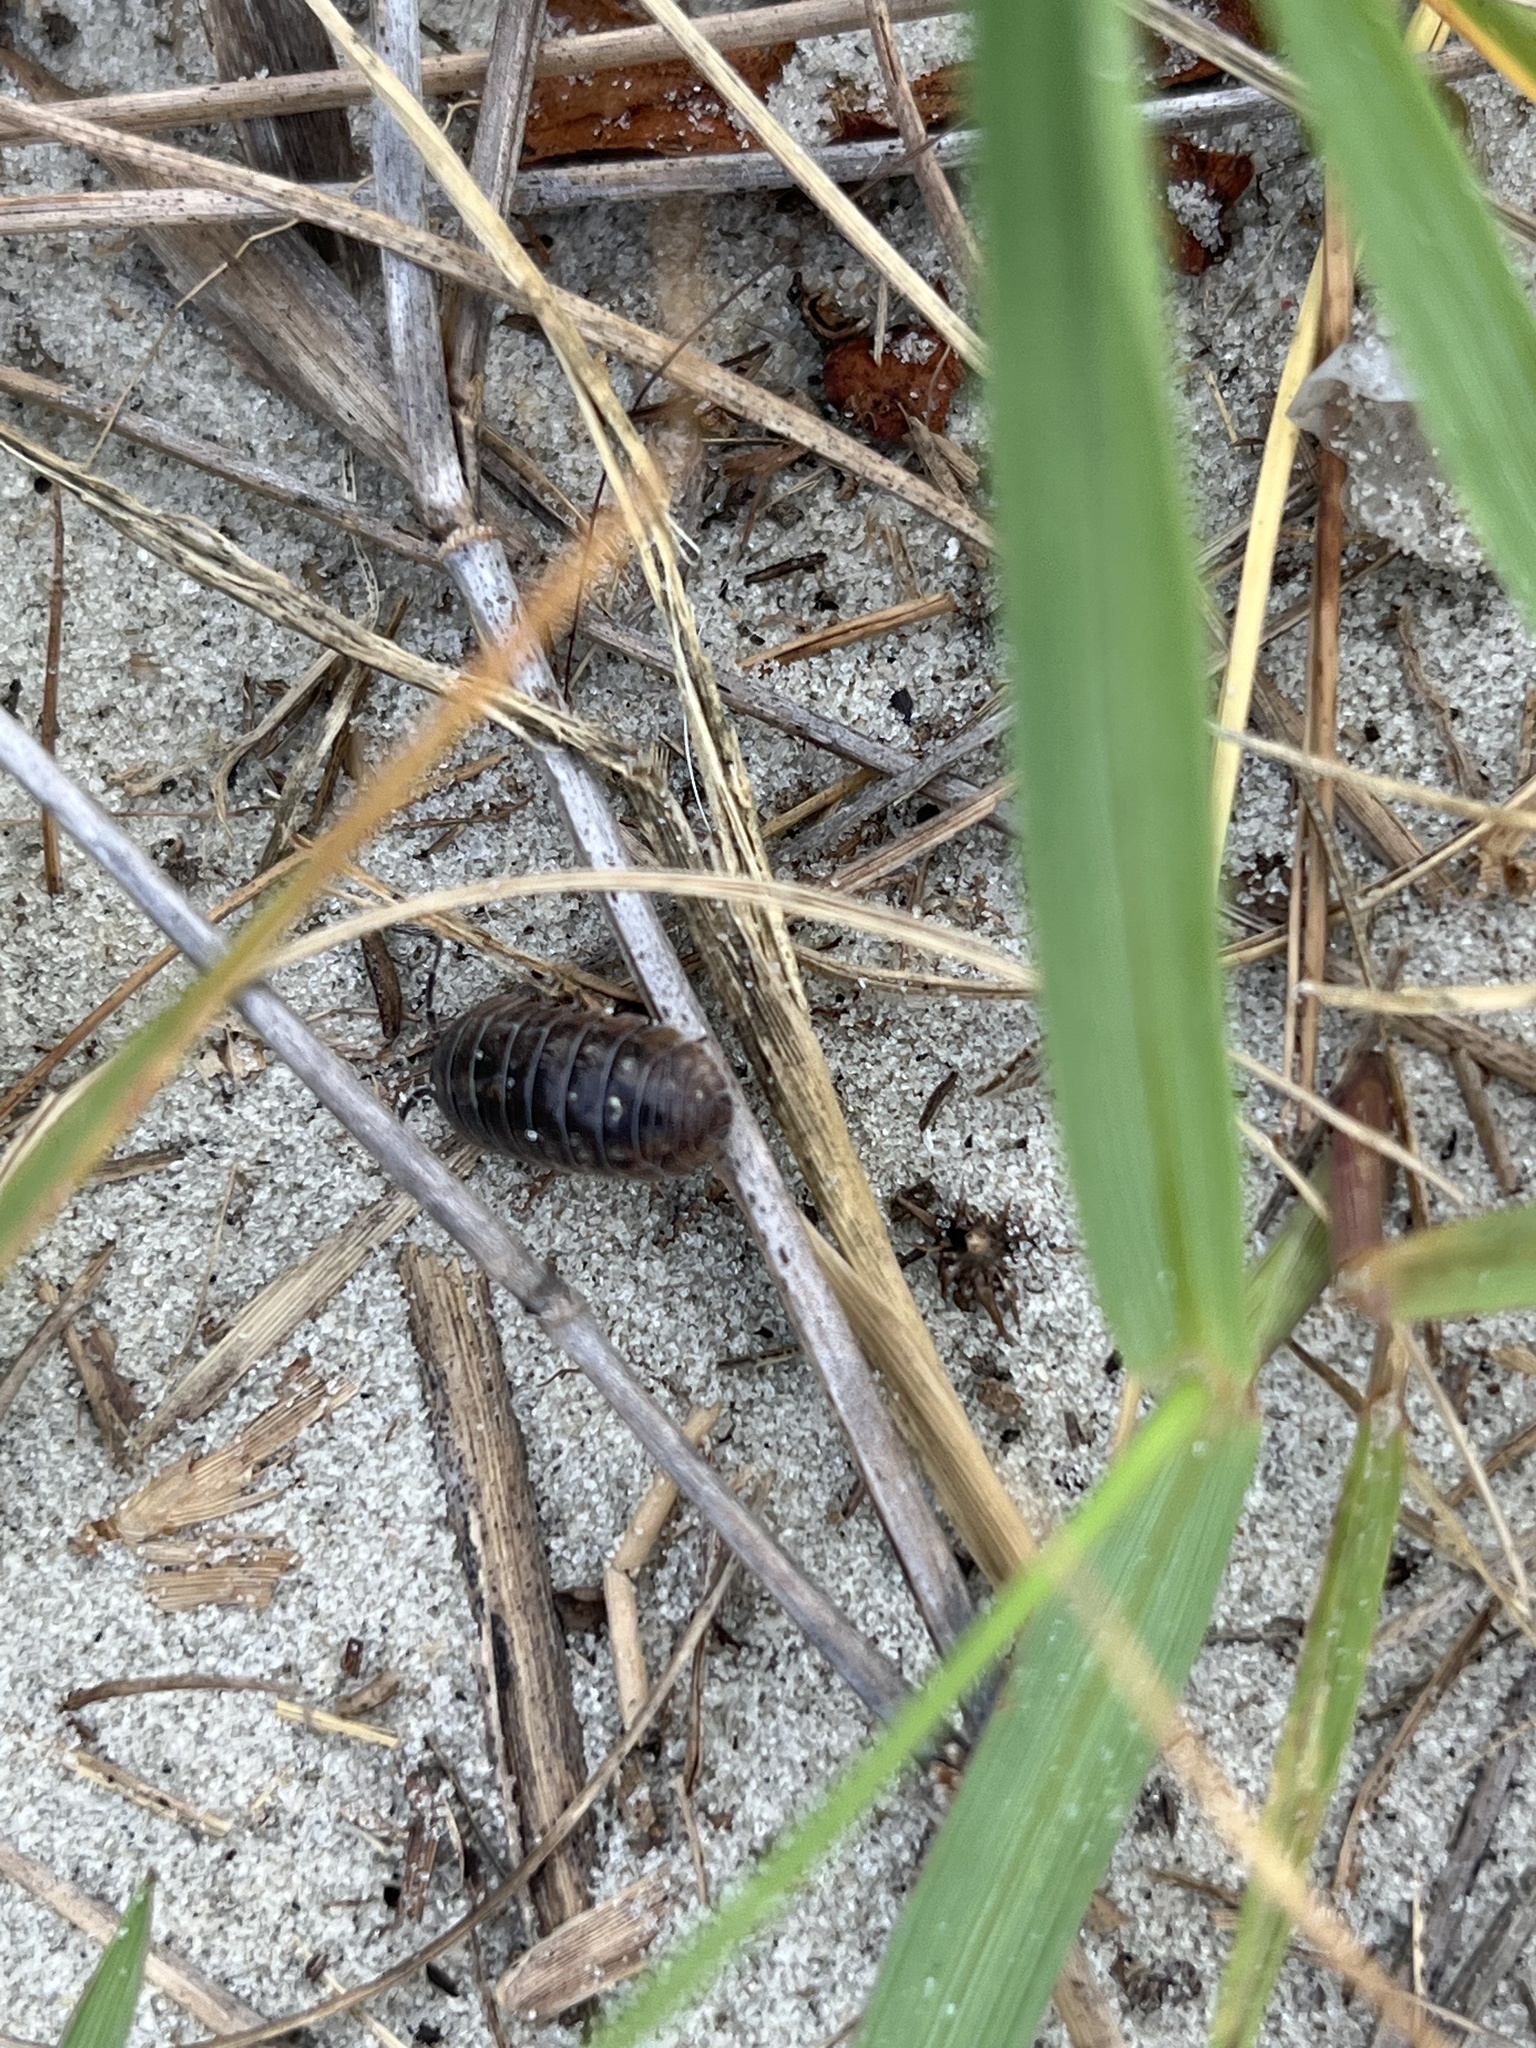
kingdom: Animalia
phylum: Arthropoda
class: Malacostraca
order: Isopoda
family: Armadillidiidae
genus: Armadillidium
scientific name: Armadillidium vulgare
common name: Common pill woodlouse
